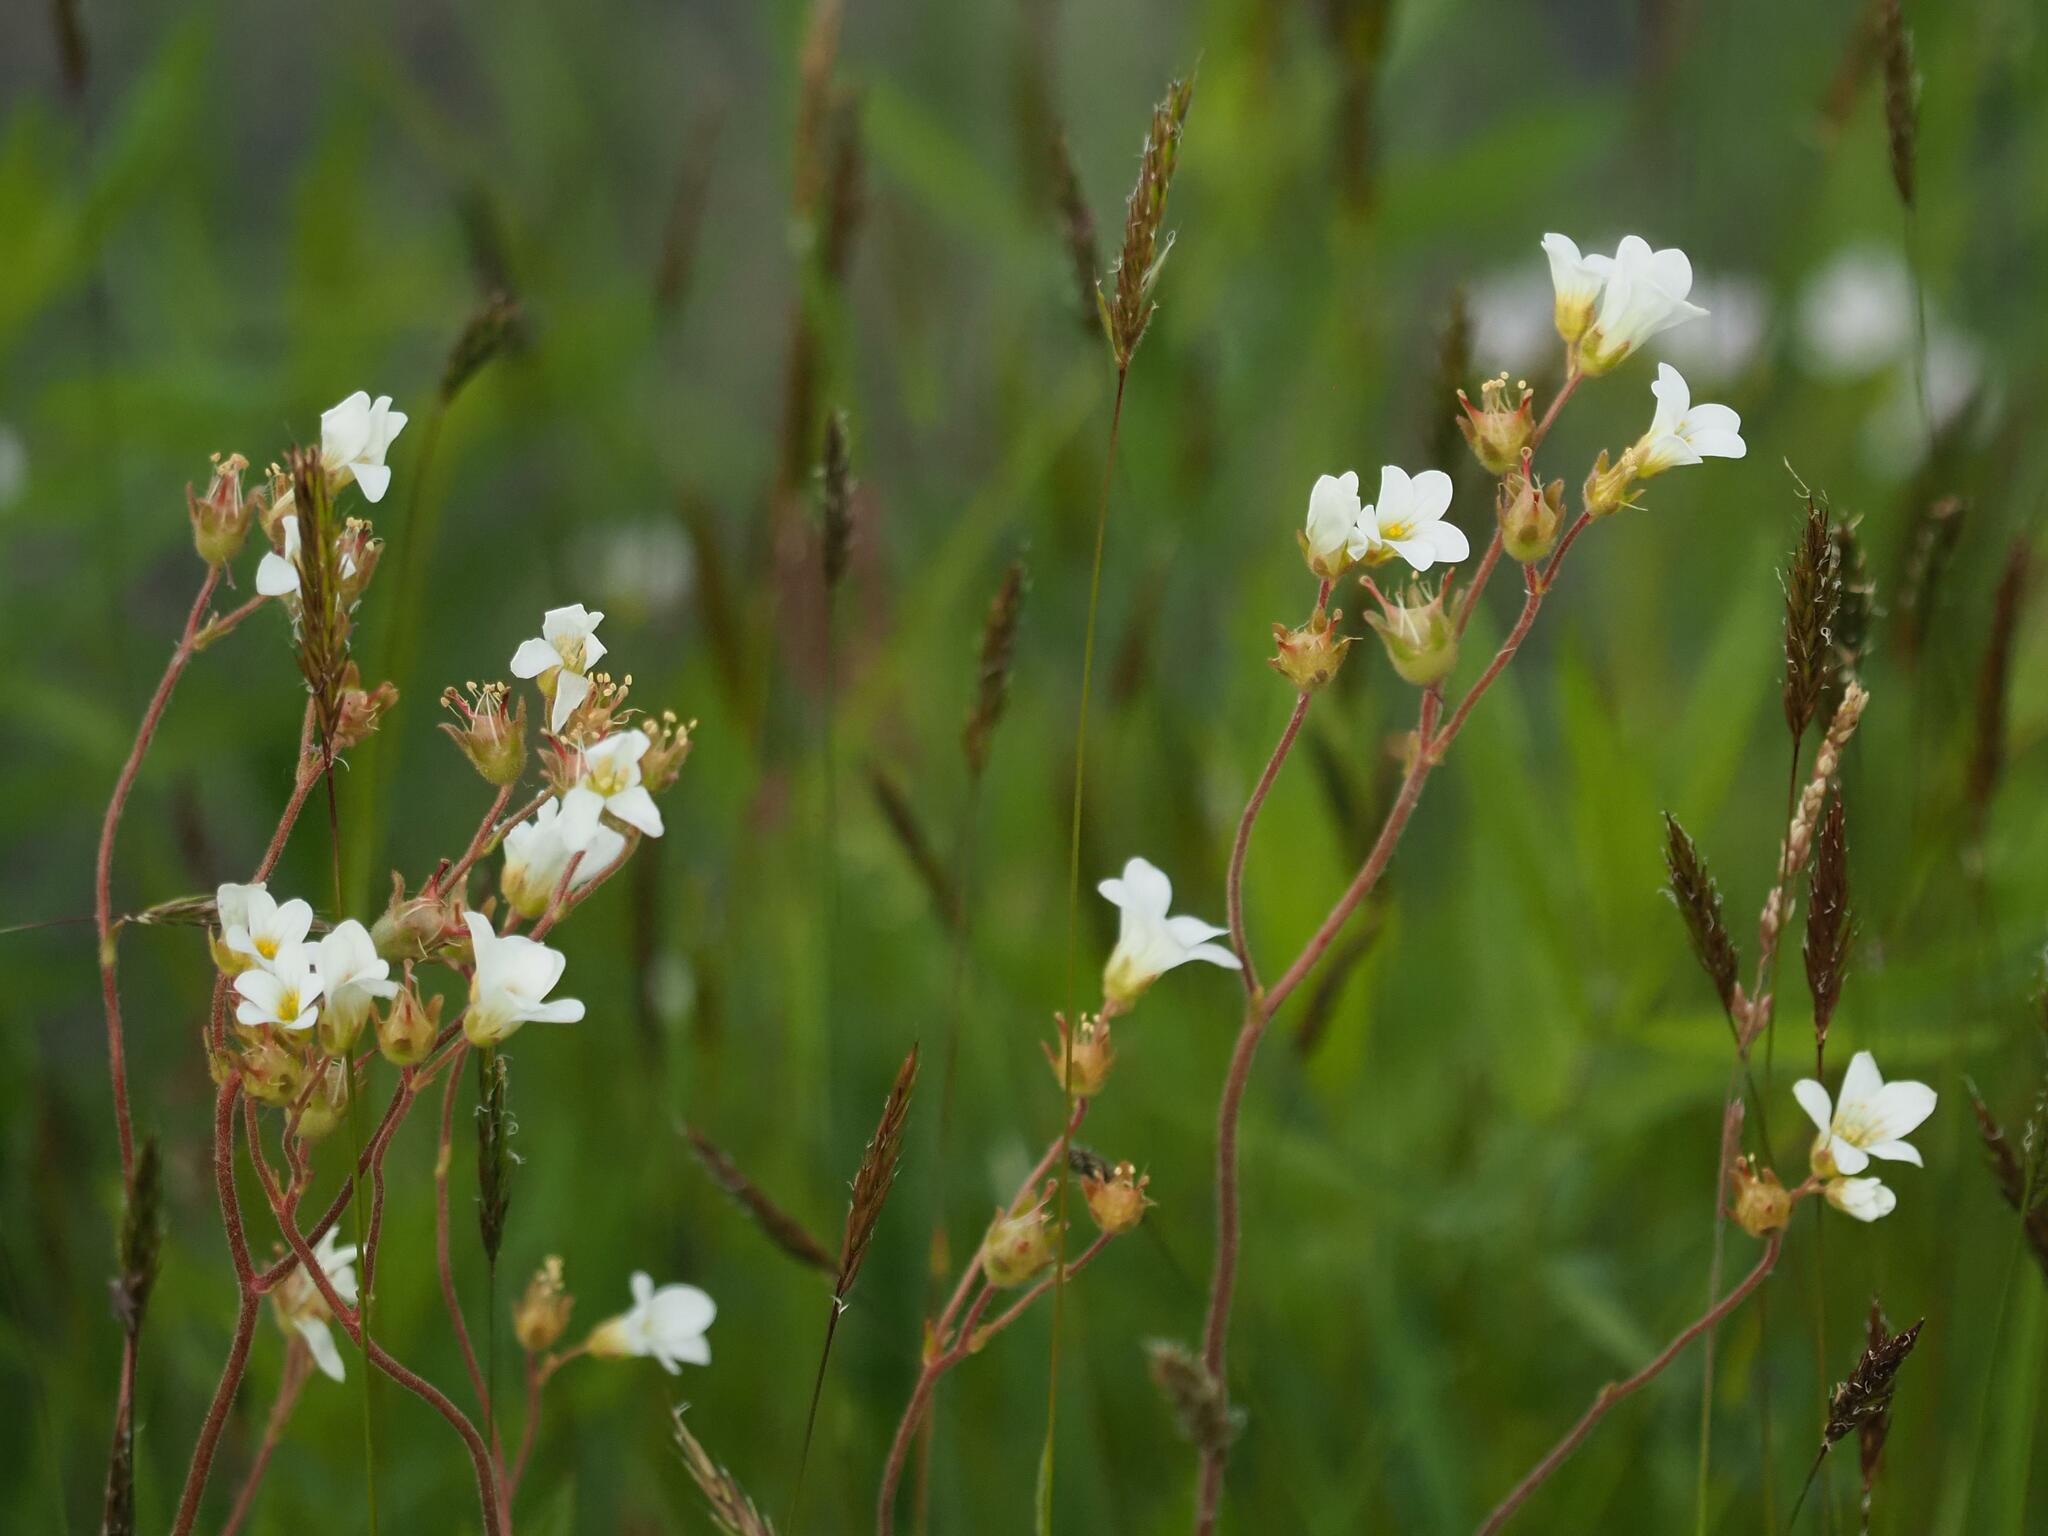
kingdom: Plantae
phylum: Tracheophyta
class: Magnoliopsida
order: Saxifragales
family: Saxifragaceae
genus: Saxifraga
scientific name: Saxifraga granulata
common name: Meadow saxifrage
